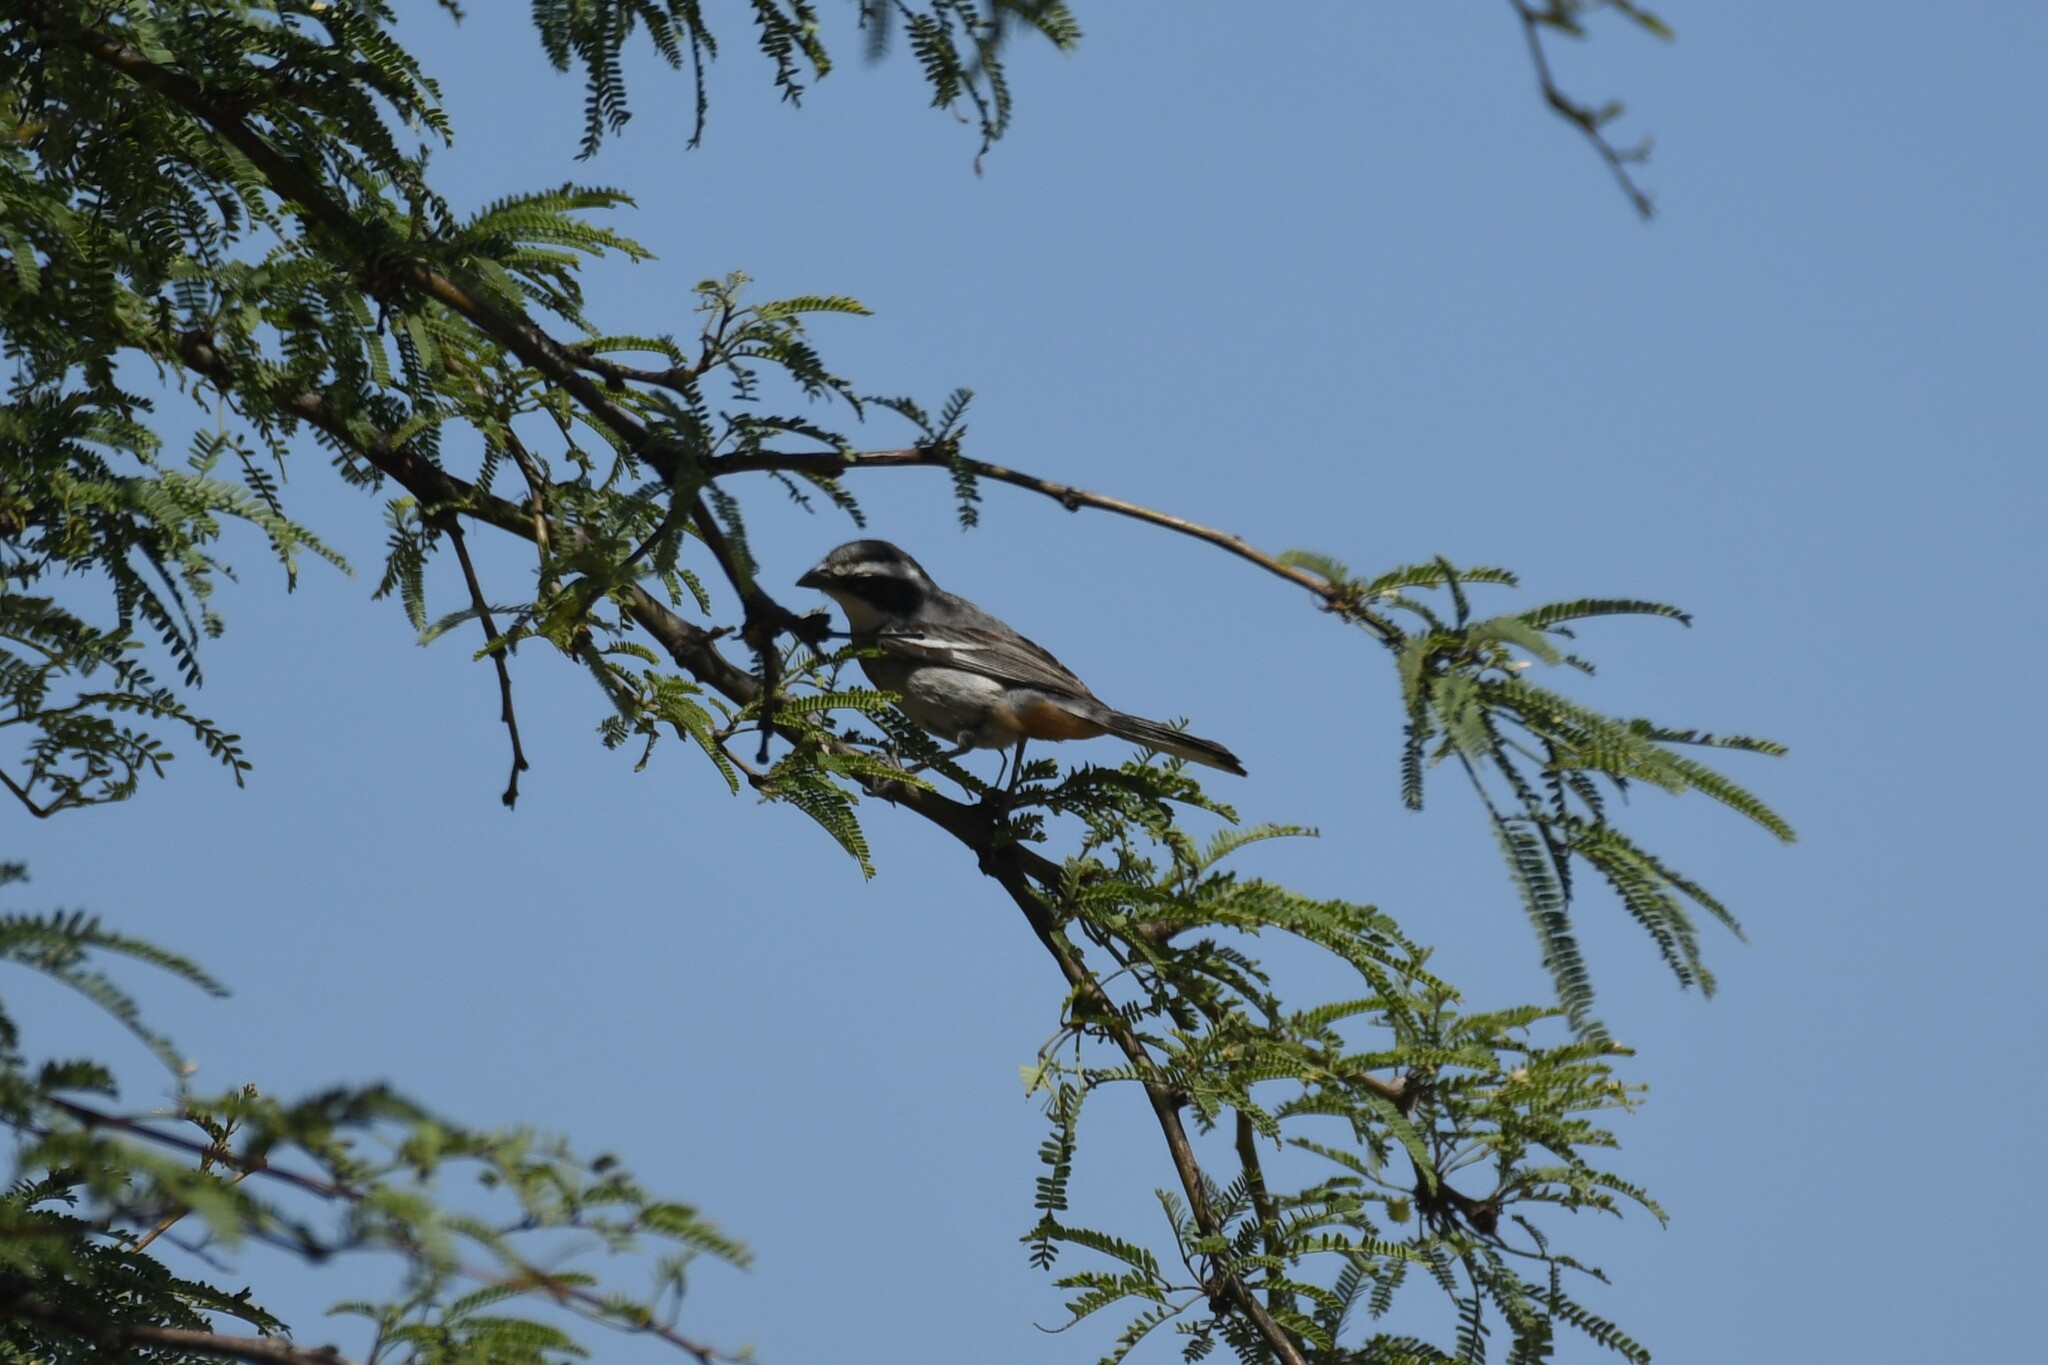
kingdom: Animalia
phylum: Chordata
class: Aves
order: Passeriformes
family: Thraupidae
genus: Microspingus
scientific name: Microspingus torquatus
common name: Ringed warbling-finch
